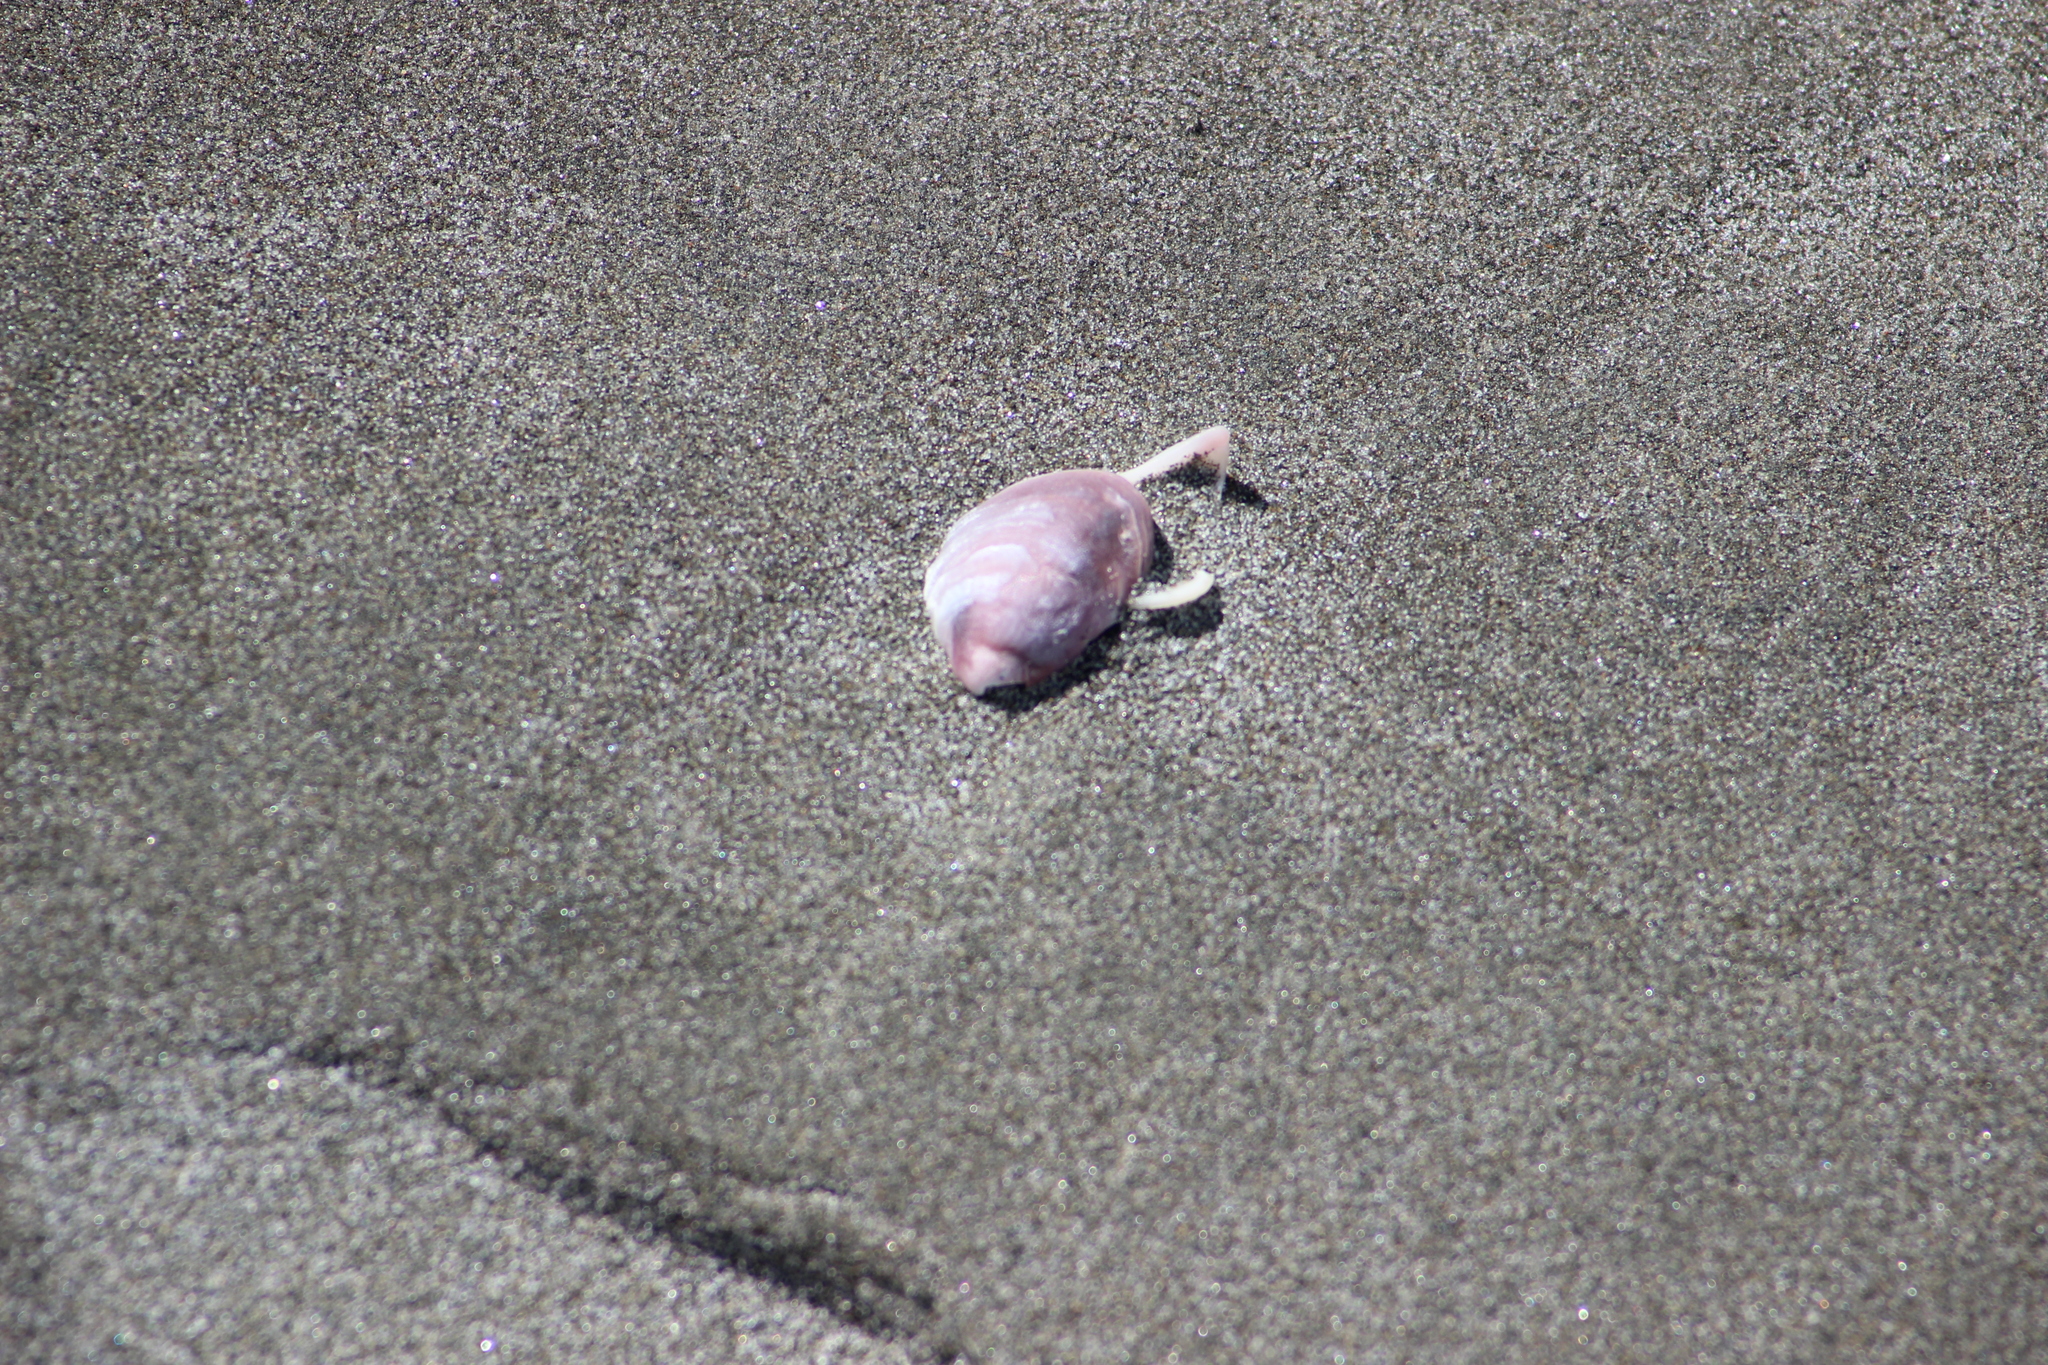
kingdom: Animalia
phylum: Mollusca
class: Bivalvia
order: Venerida
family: Veneridae
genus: Austrovenus
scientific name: Austrovenus stutchburyi
